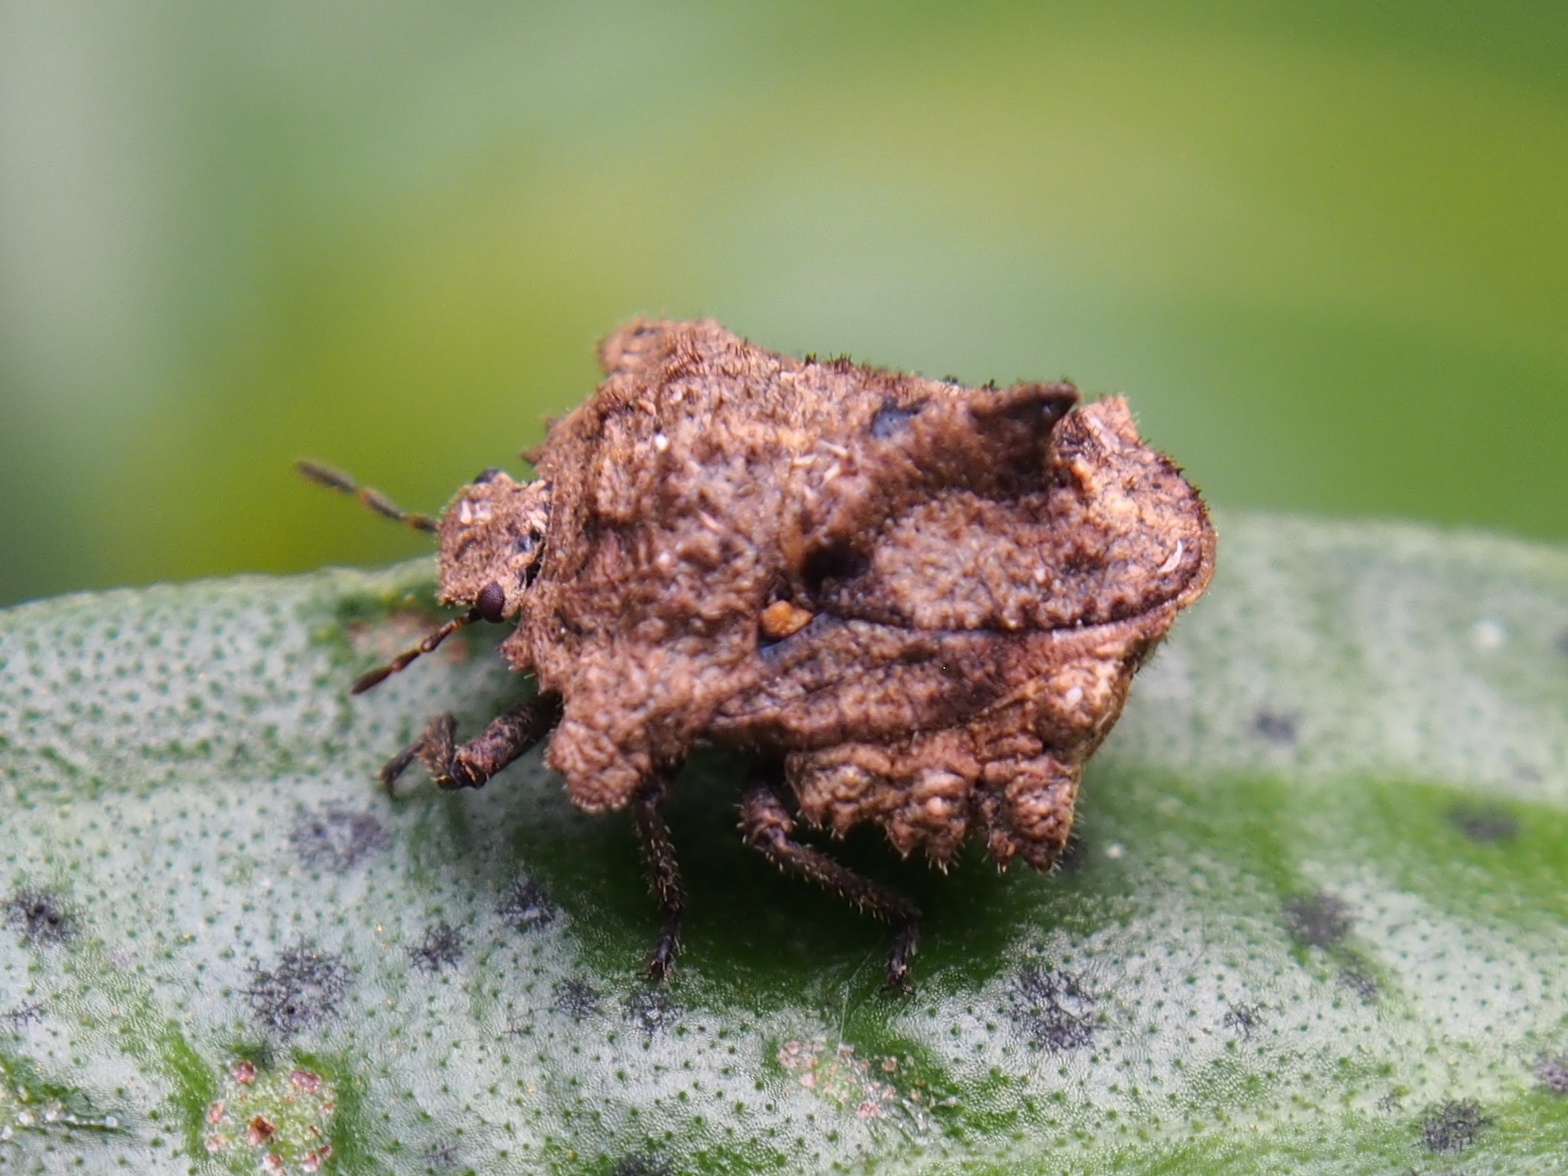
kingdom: Animalia
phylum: Arthropoda
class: Insecta
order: Hemiptera
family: Pentatomidae
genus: Cyrtocoris
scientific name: Cyrtocoris egeris
